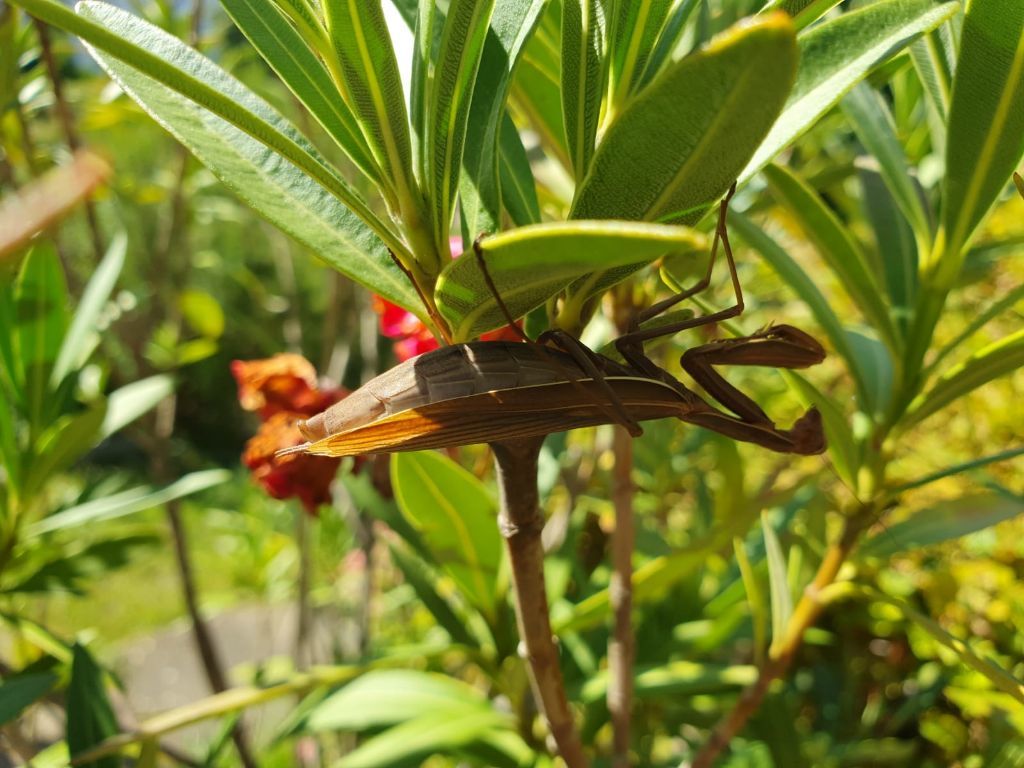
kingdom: Animalia
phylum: Arthropoda
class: Insecta
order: Mantodea
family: Mantidae
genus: Mantis
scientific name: Mantis religiosa
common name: Praying mantis
